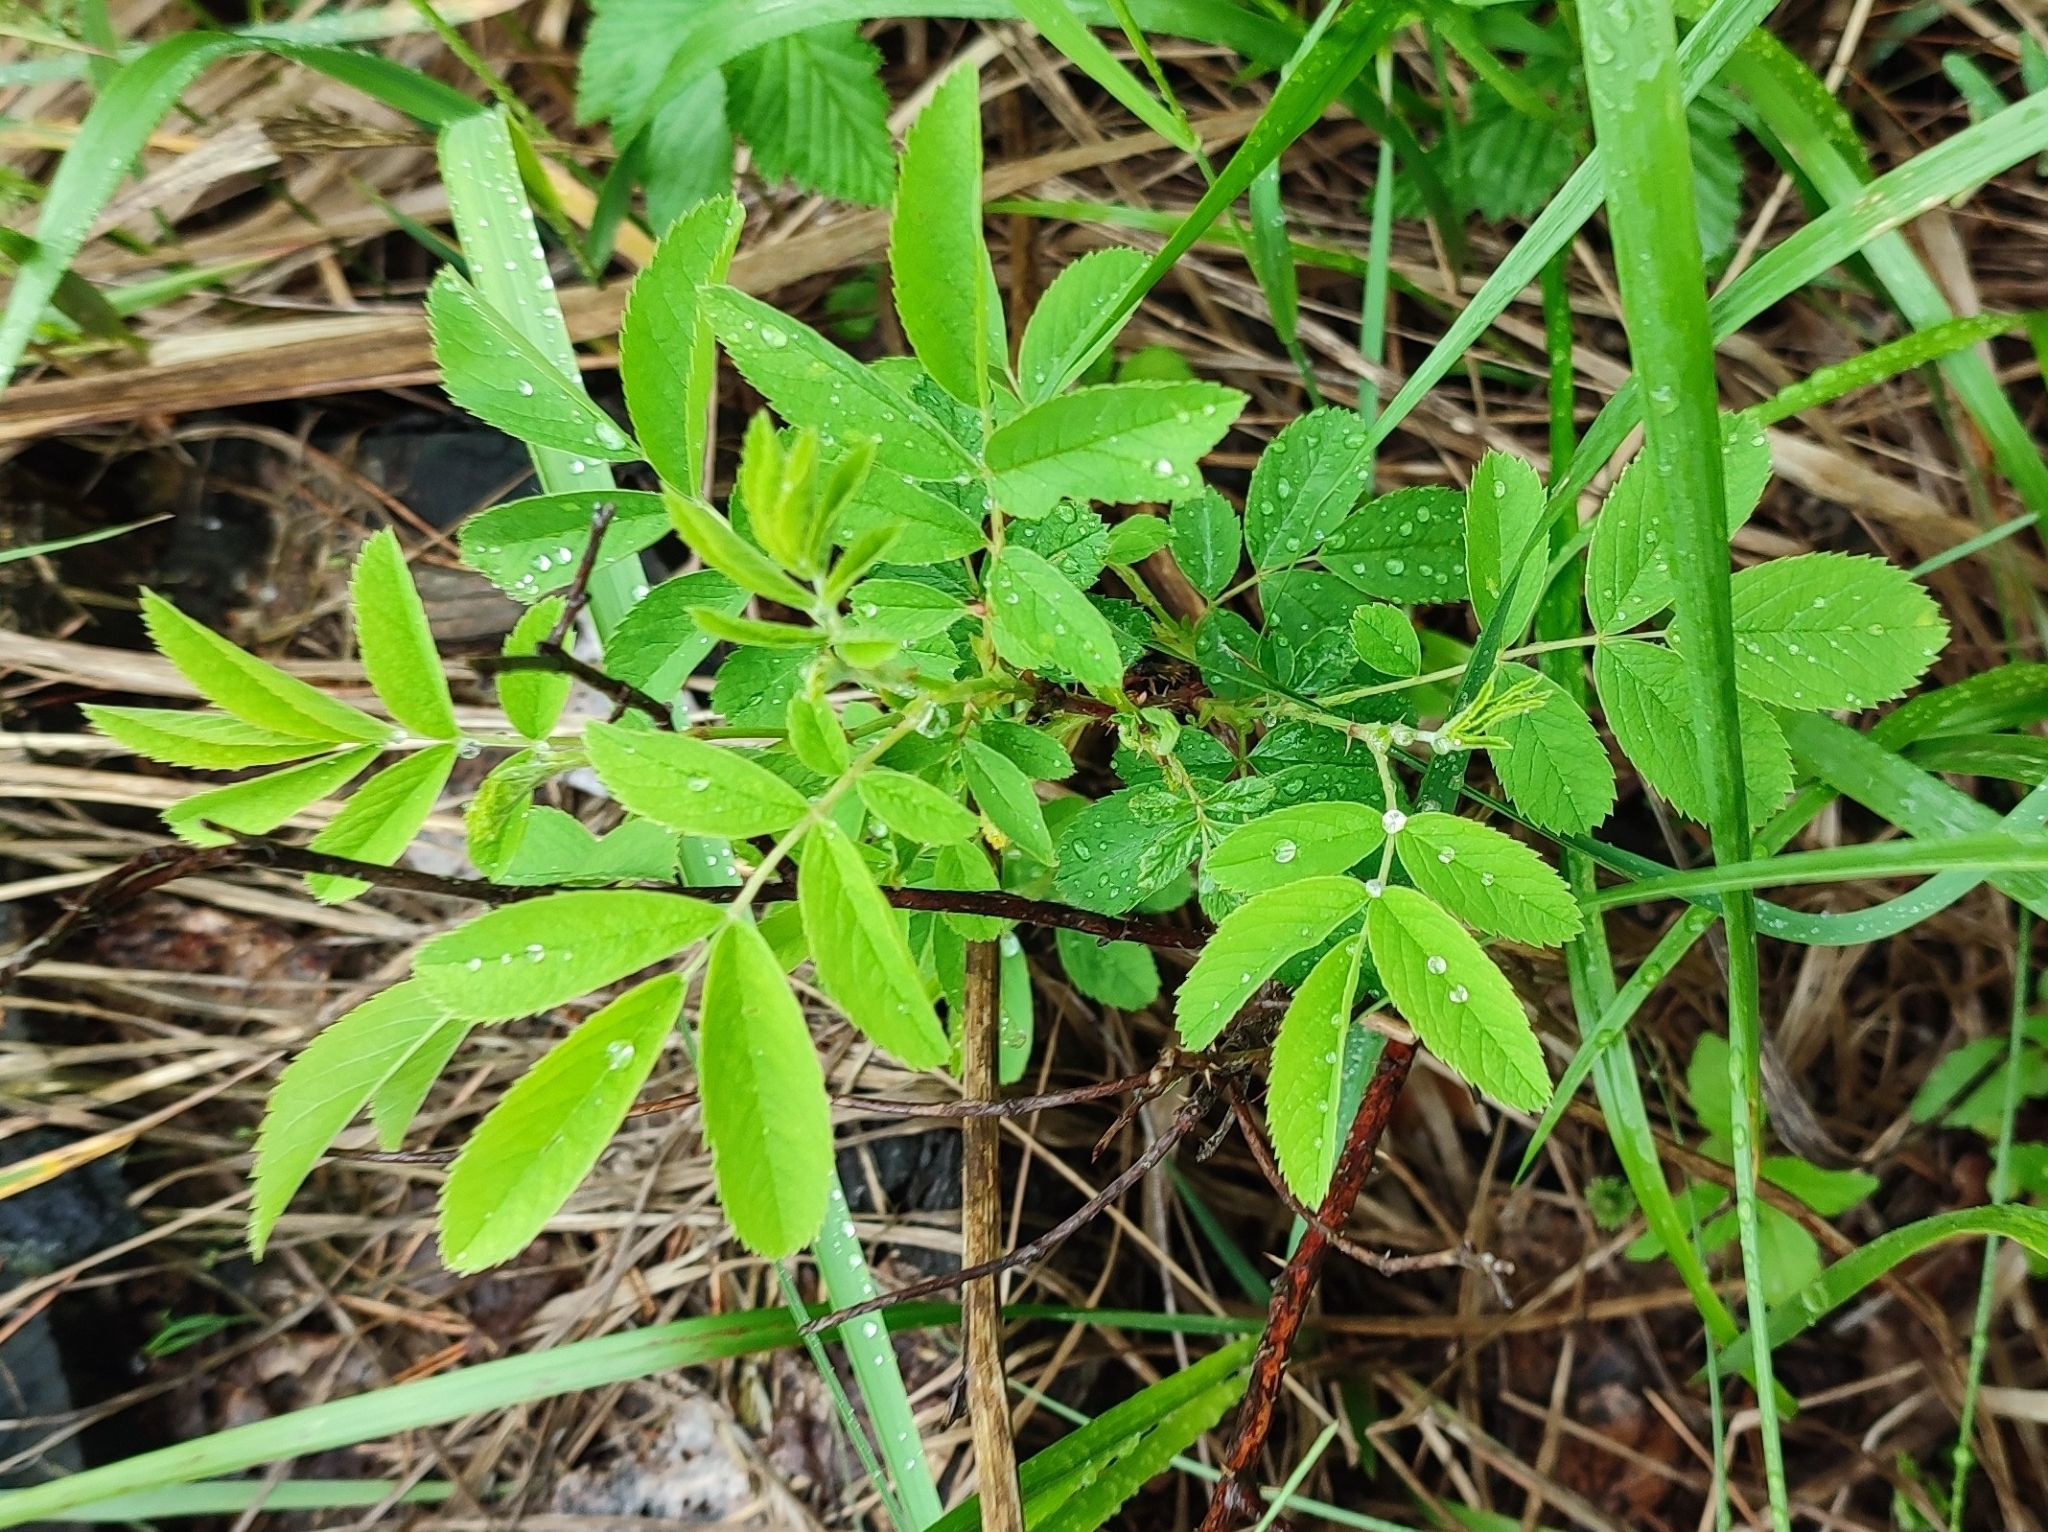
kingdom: Plantae
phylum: Tracheophyta
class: Magnoliopsida
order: Rosales
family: Rosaceae
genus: Rosa
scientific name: Rosa majalis
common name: Cinnamon rose
